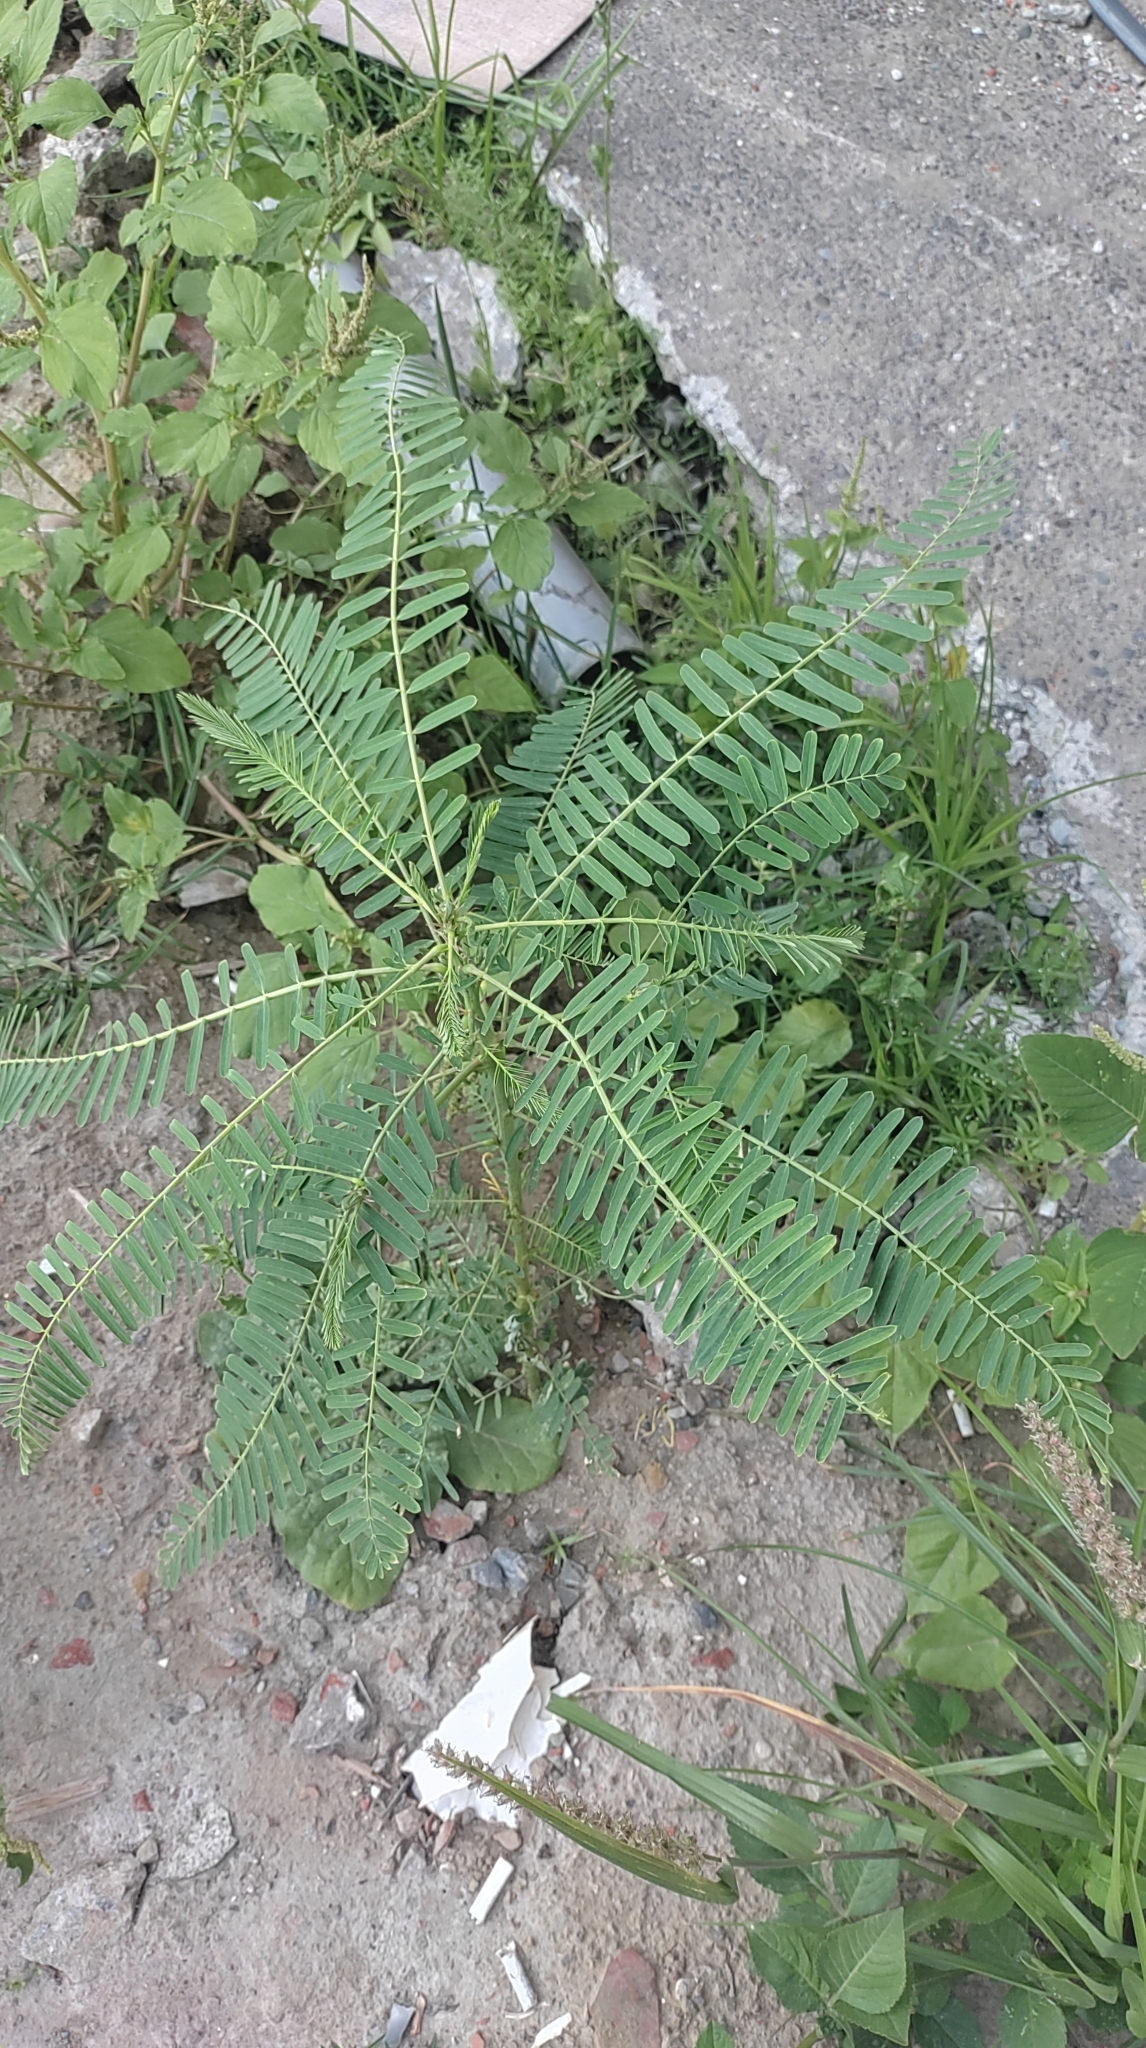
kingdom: Plantae
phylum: Tracheophyta
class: Magnoliopsida
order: Fabales
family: Fabaceae
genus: Sesbania
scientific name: Sesbania cannabina
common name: Canicha
